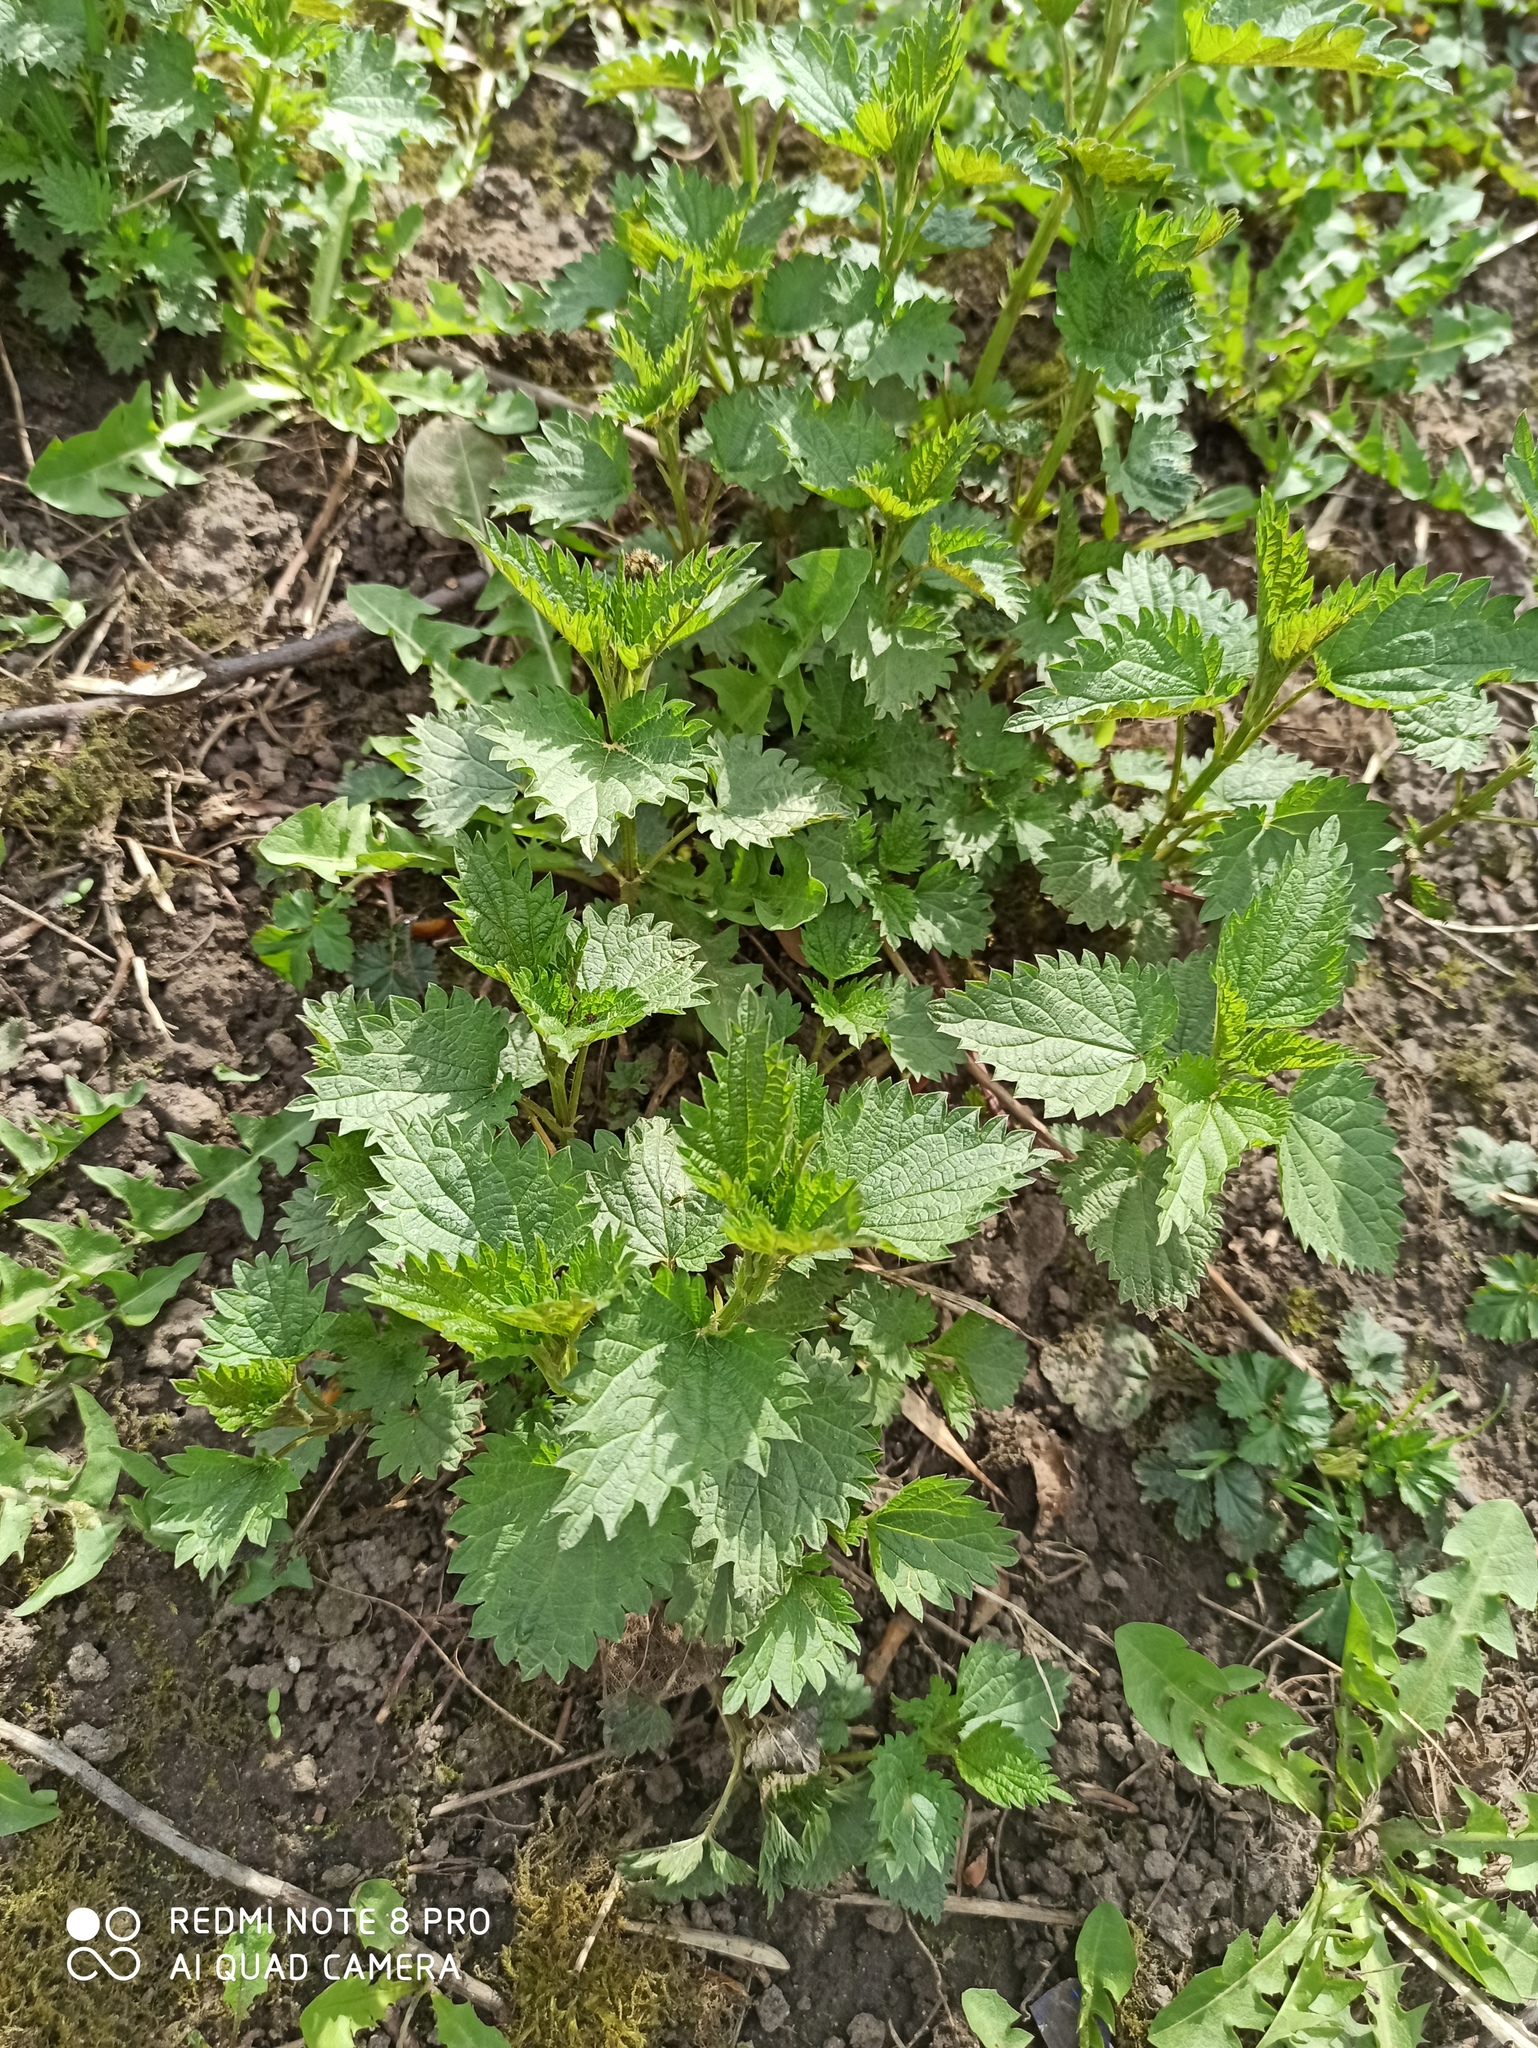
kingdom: Plantae
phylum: Tracheophyta
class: Magnoliopsida
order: Rosales
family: Urticaceae
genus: Urtica
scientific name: Urtica dioica
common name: Common nettle
